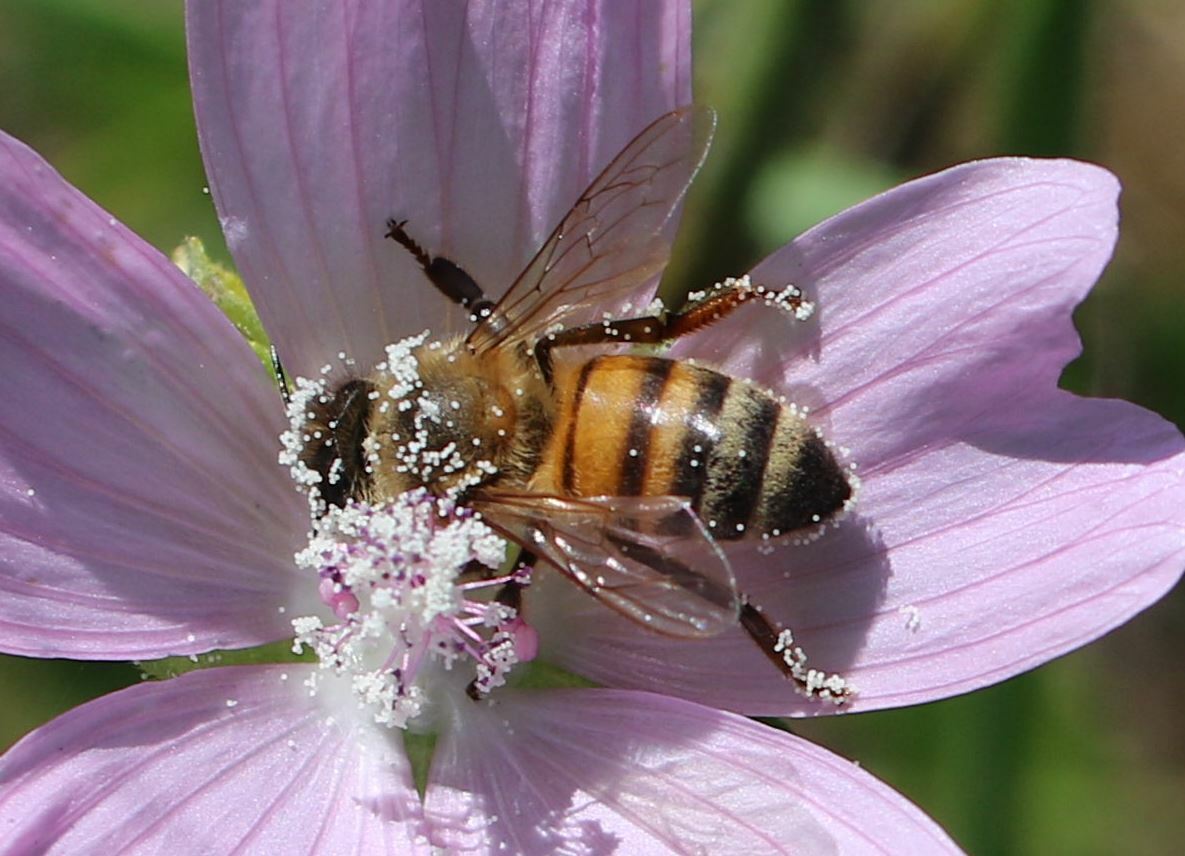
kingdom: Animalia
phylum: Arthropoda
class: Insecta
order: Hymenoptera
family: Apidae
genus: Apis
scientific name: Apis mellifera
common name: Honey bee
